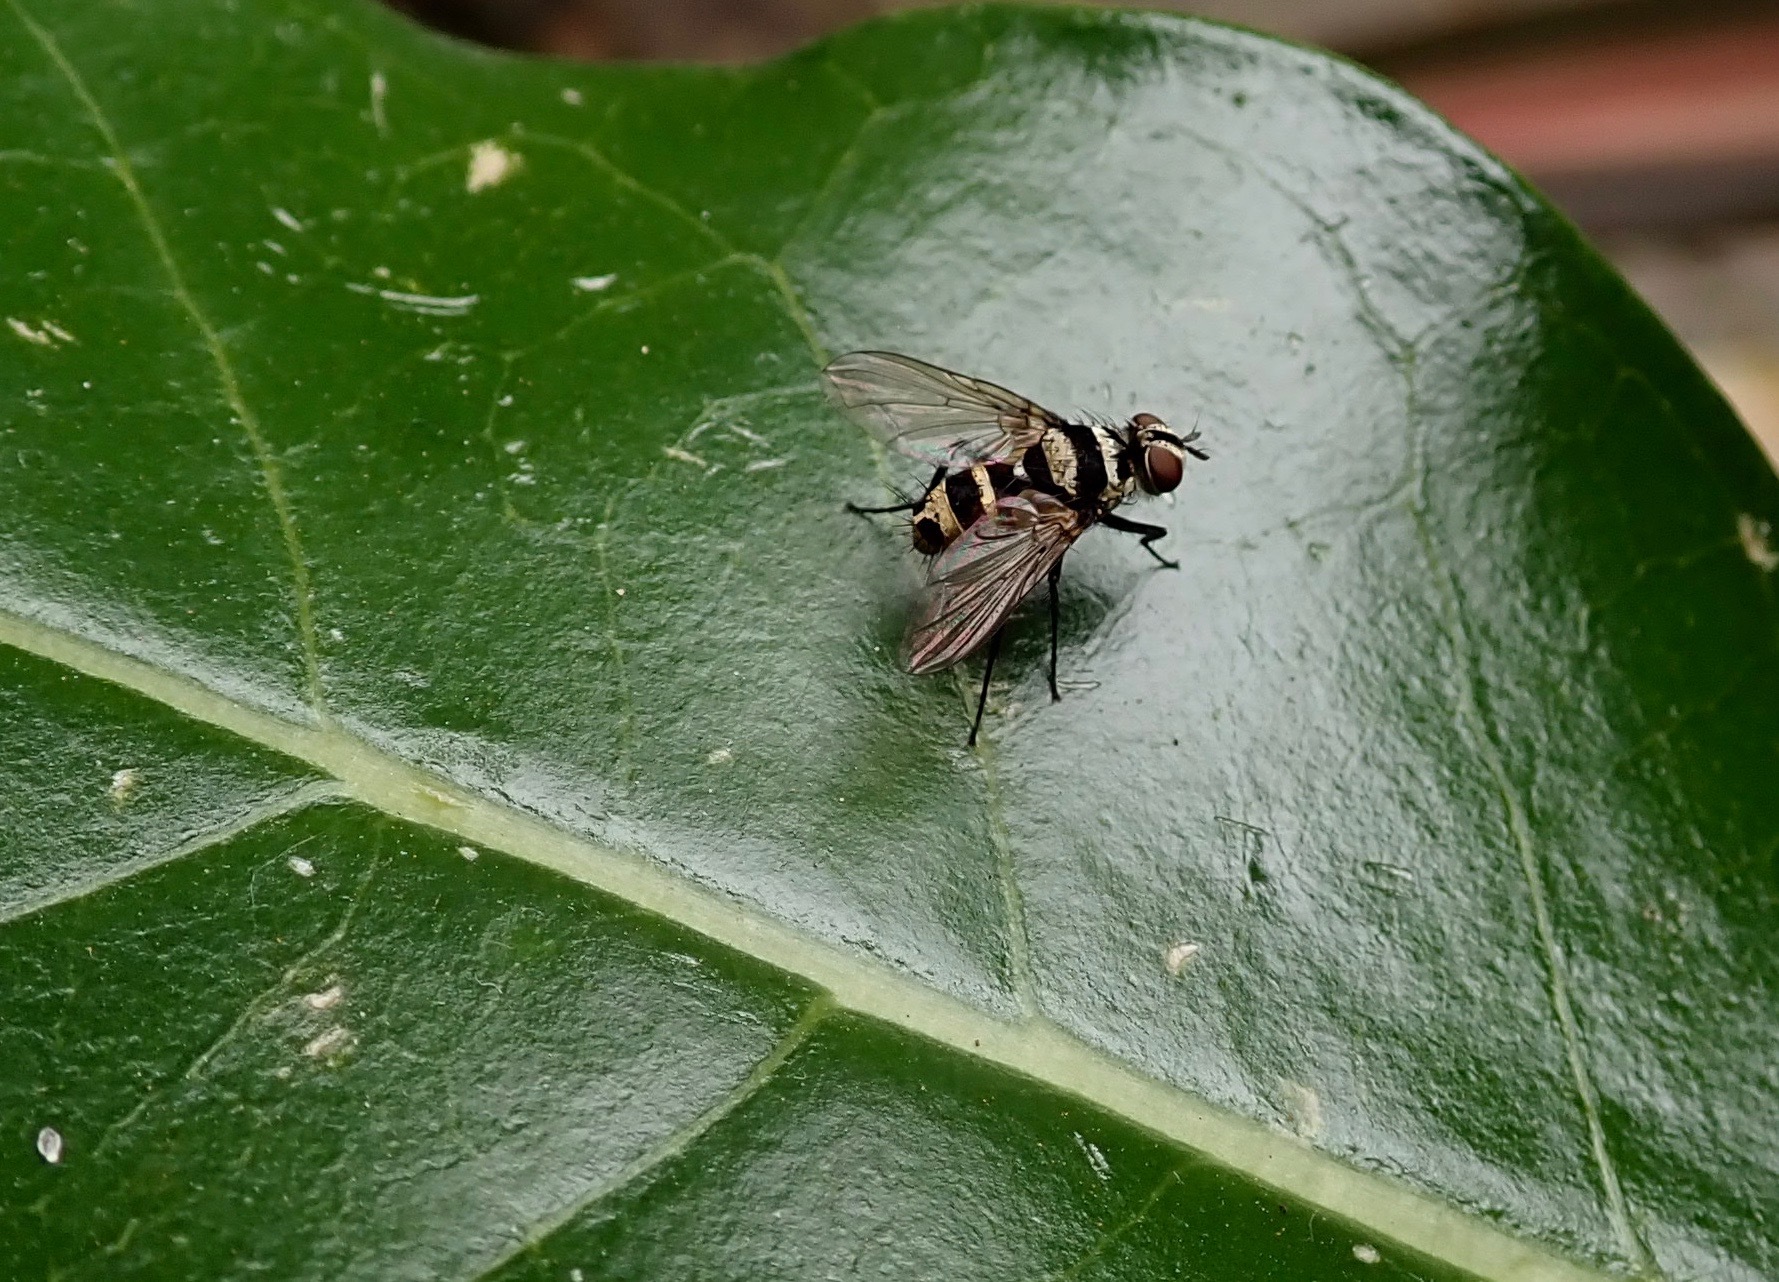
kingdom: Animalia
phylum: Arthropoda
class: Insecta
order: Diptera
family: Tachinidae
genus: Trigonospila
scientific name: Trigonospila brevifacies
